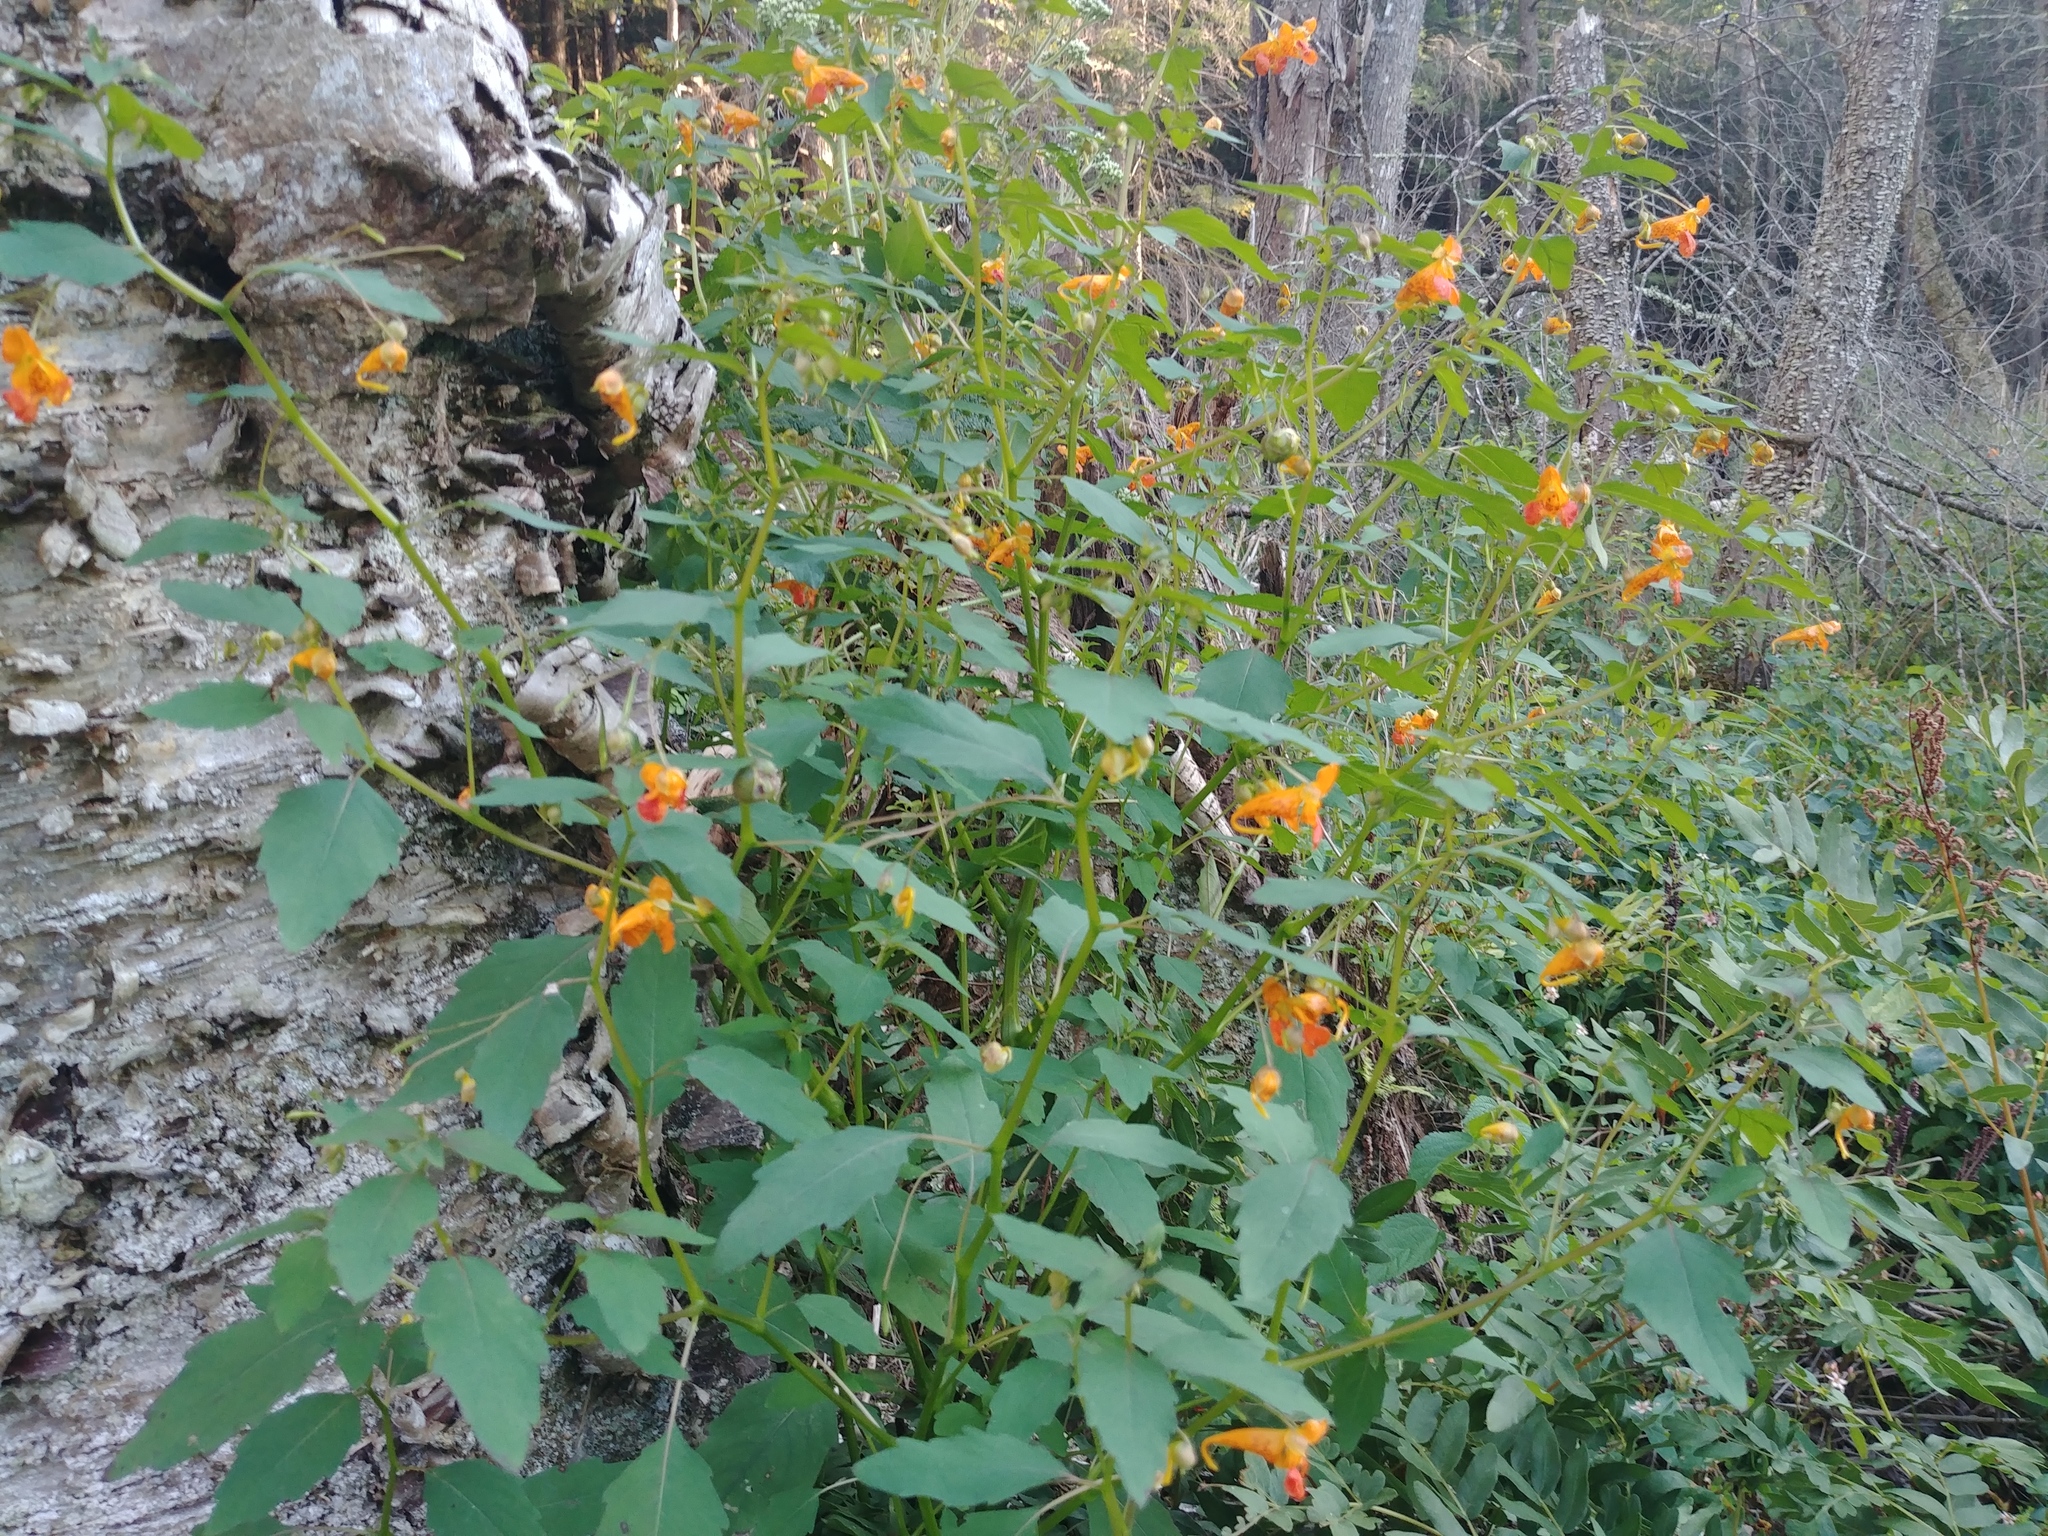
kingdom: Plantae
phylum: Tracheophyta
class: Magnoliopsida
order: Ericales
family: Balsaminaceae
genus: Impatiens
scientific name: Impatiens capensis
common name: Orange balsam
